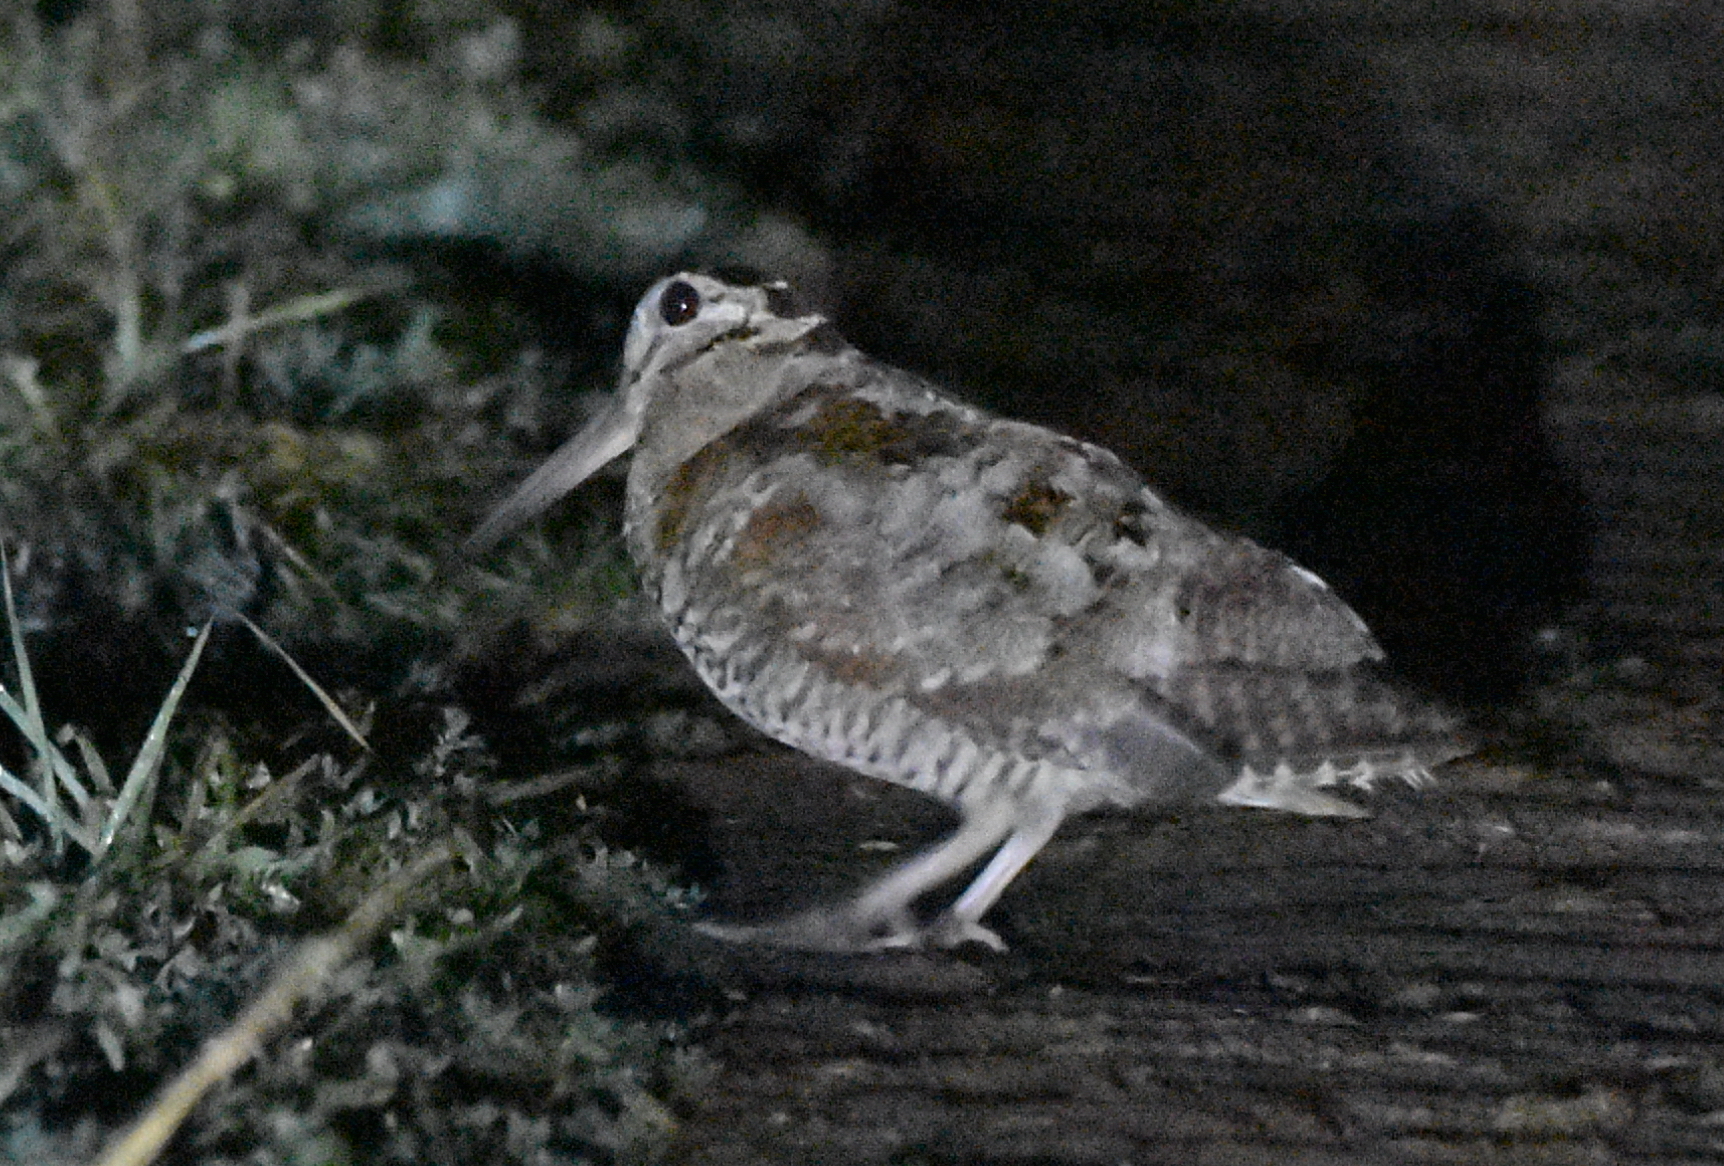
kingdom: Animalia
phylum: Chordata
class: Aves
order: Charadriiformes
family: Scolopacidae
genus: Scolopax
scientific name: Scolopax rusticola
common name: Eurasian woodcock
